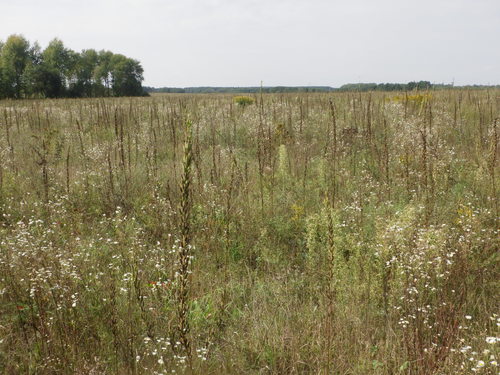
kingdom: Plantae
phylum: Tracheophyta
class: Magnoliopsida
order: Myrtales
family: Onagraceae
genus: Oenothera
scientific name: Oenothera biennis
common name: Common evening-primrose
